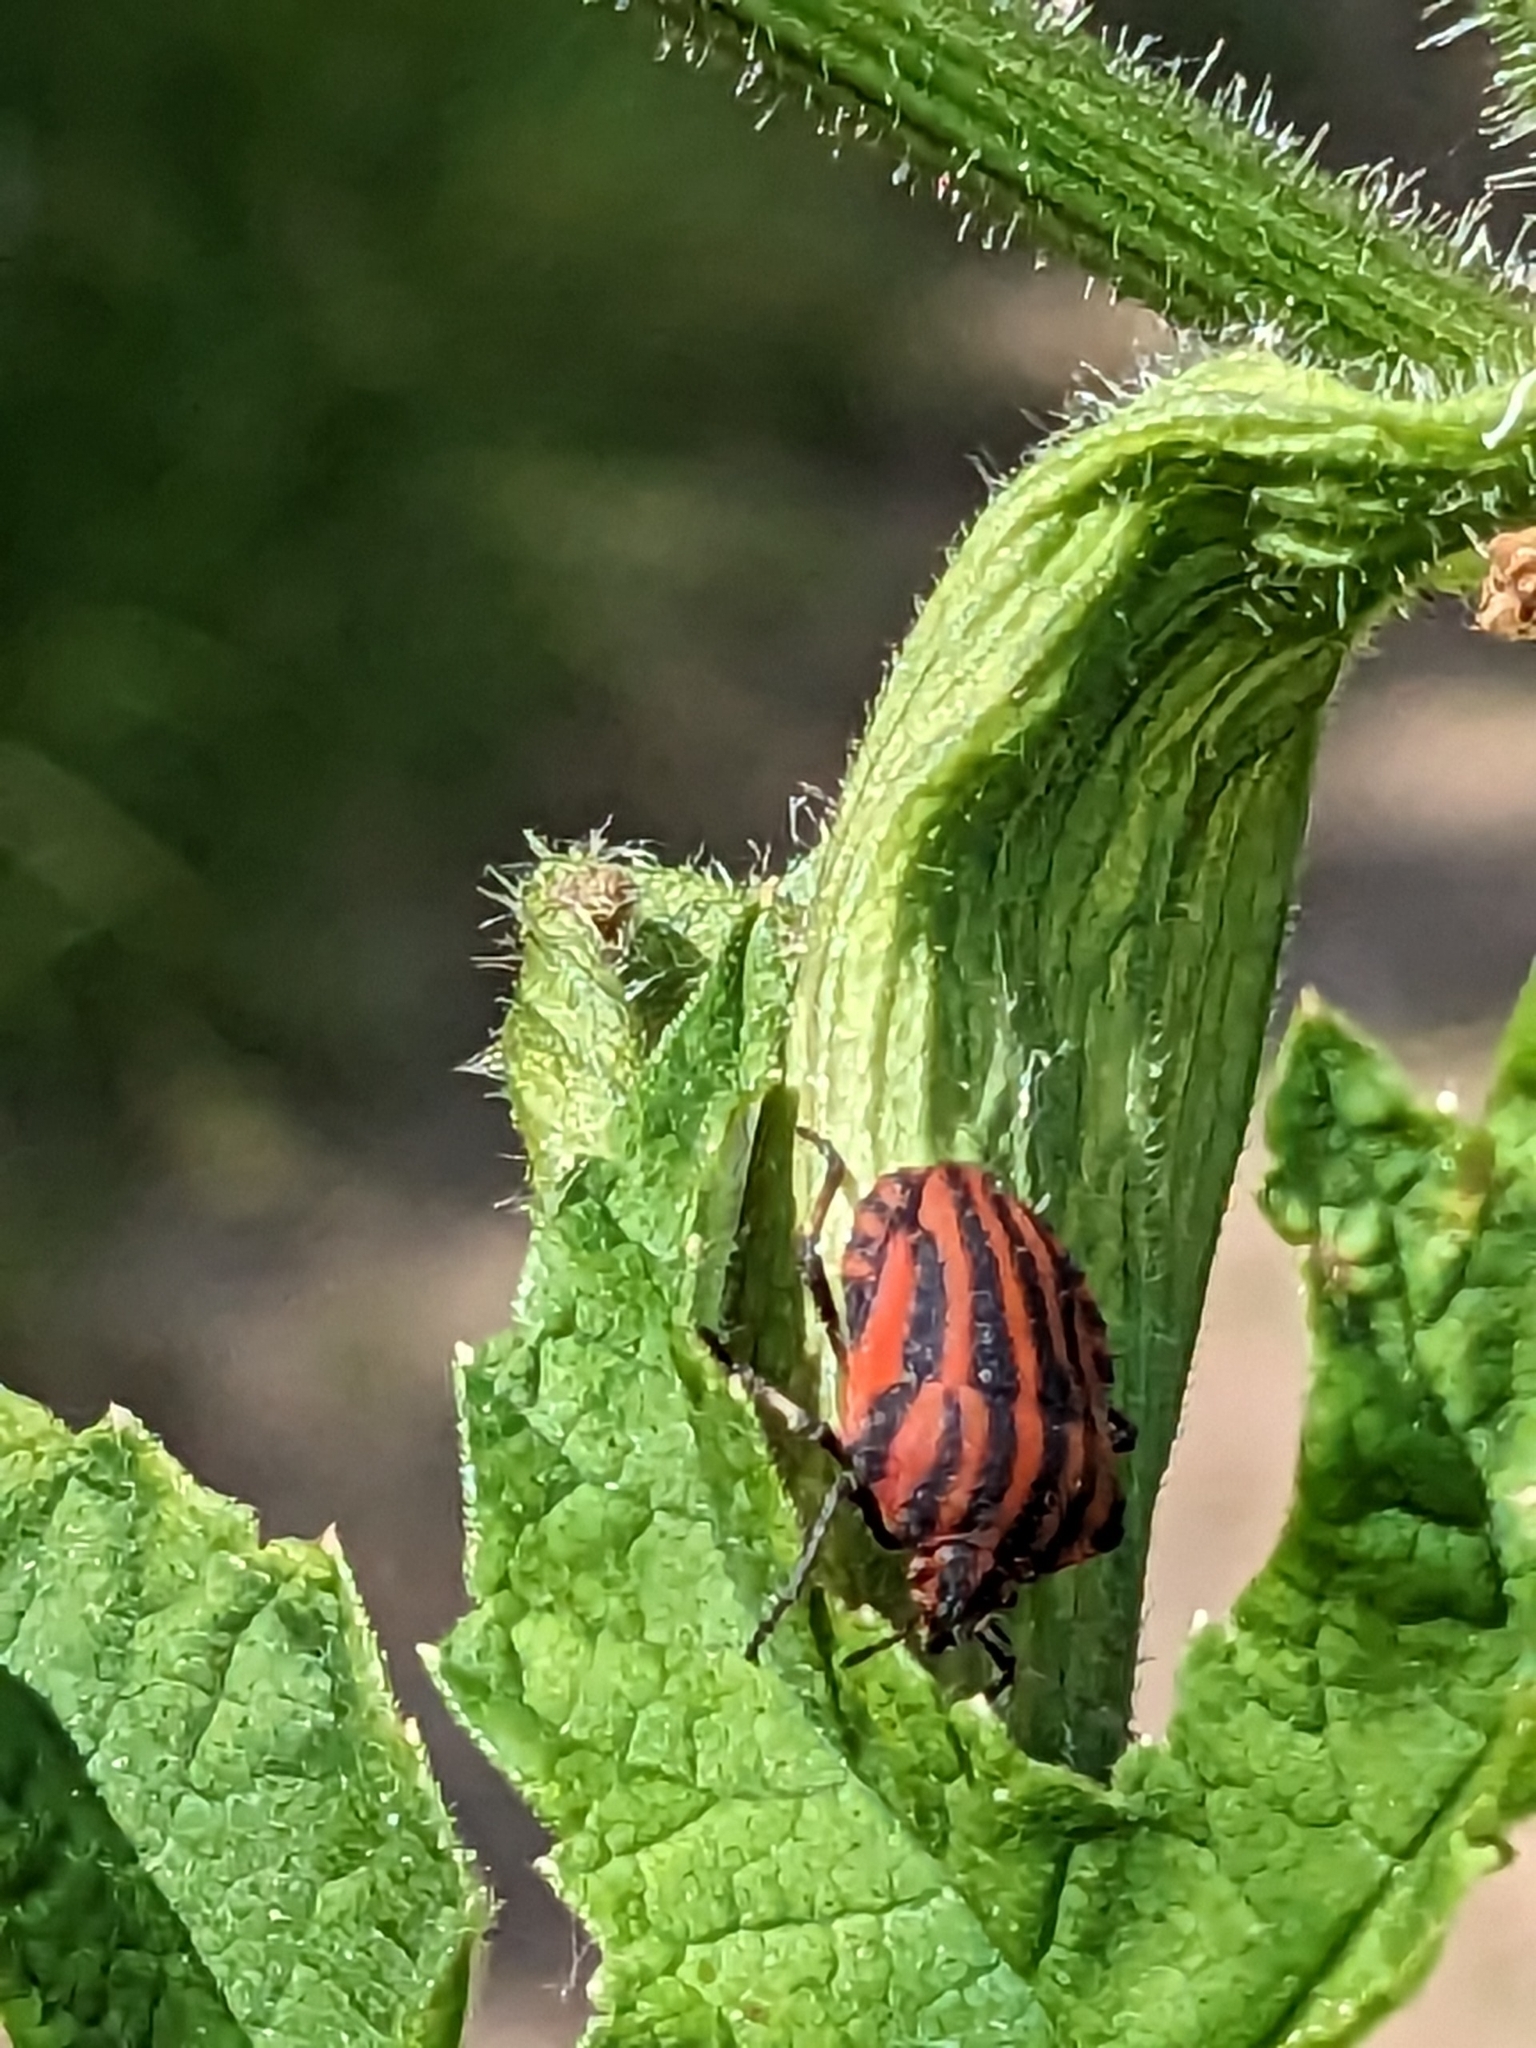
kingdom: Animalia
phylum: Arthropoda
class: Insecta
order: Hemiptera
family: Pentatomidae
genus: Graphosoma
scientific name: Graphosoma italicum
